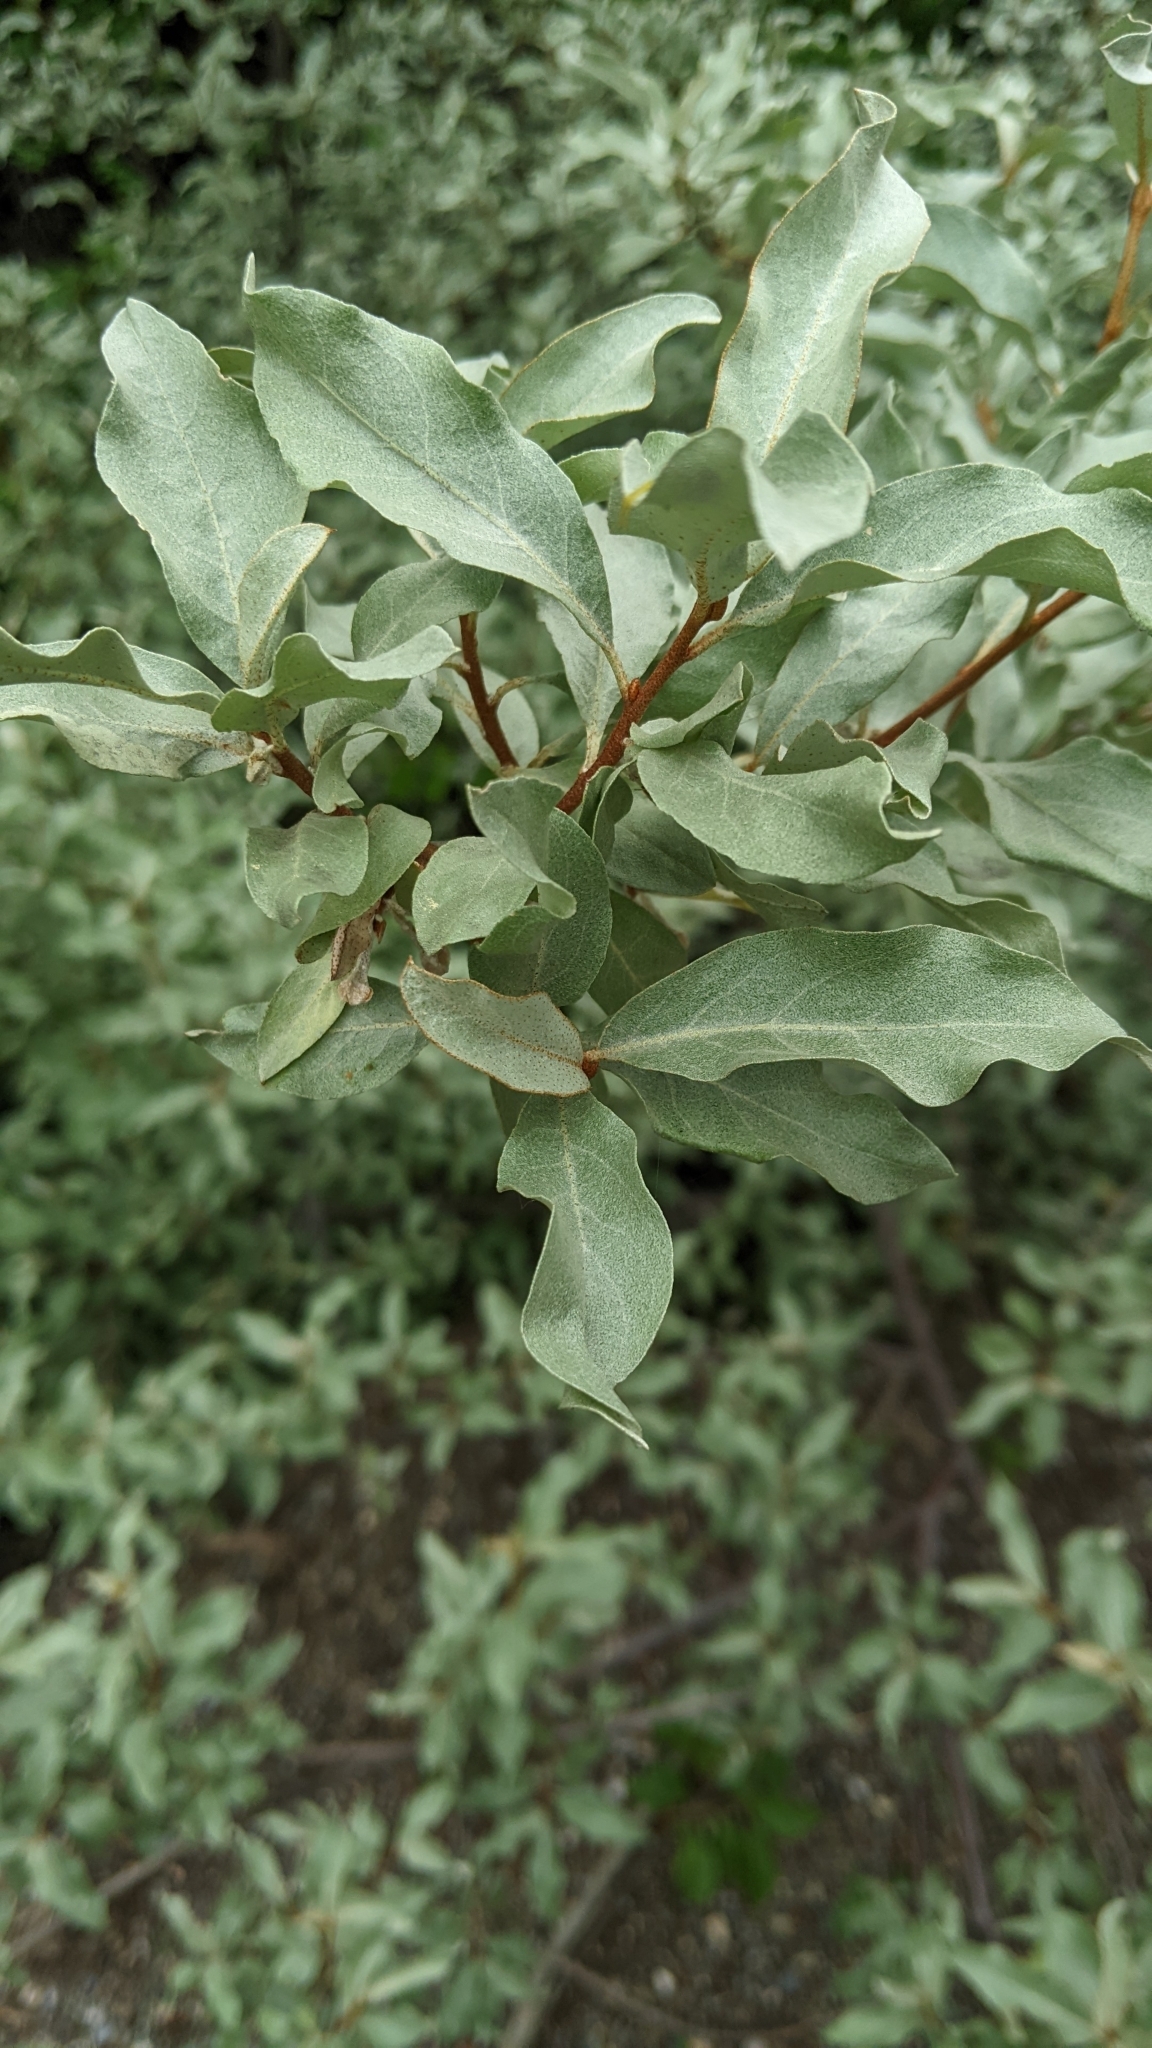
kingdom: Plantae
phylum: Tracheophyta
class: Magnoliopsida
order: Rosales
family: Elaeagnaceae
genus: Elaeagnus
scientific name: Elaeagnus commutata
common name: Silverberry
